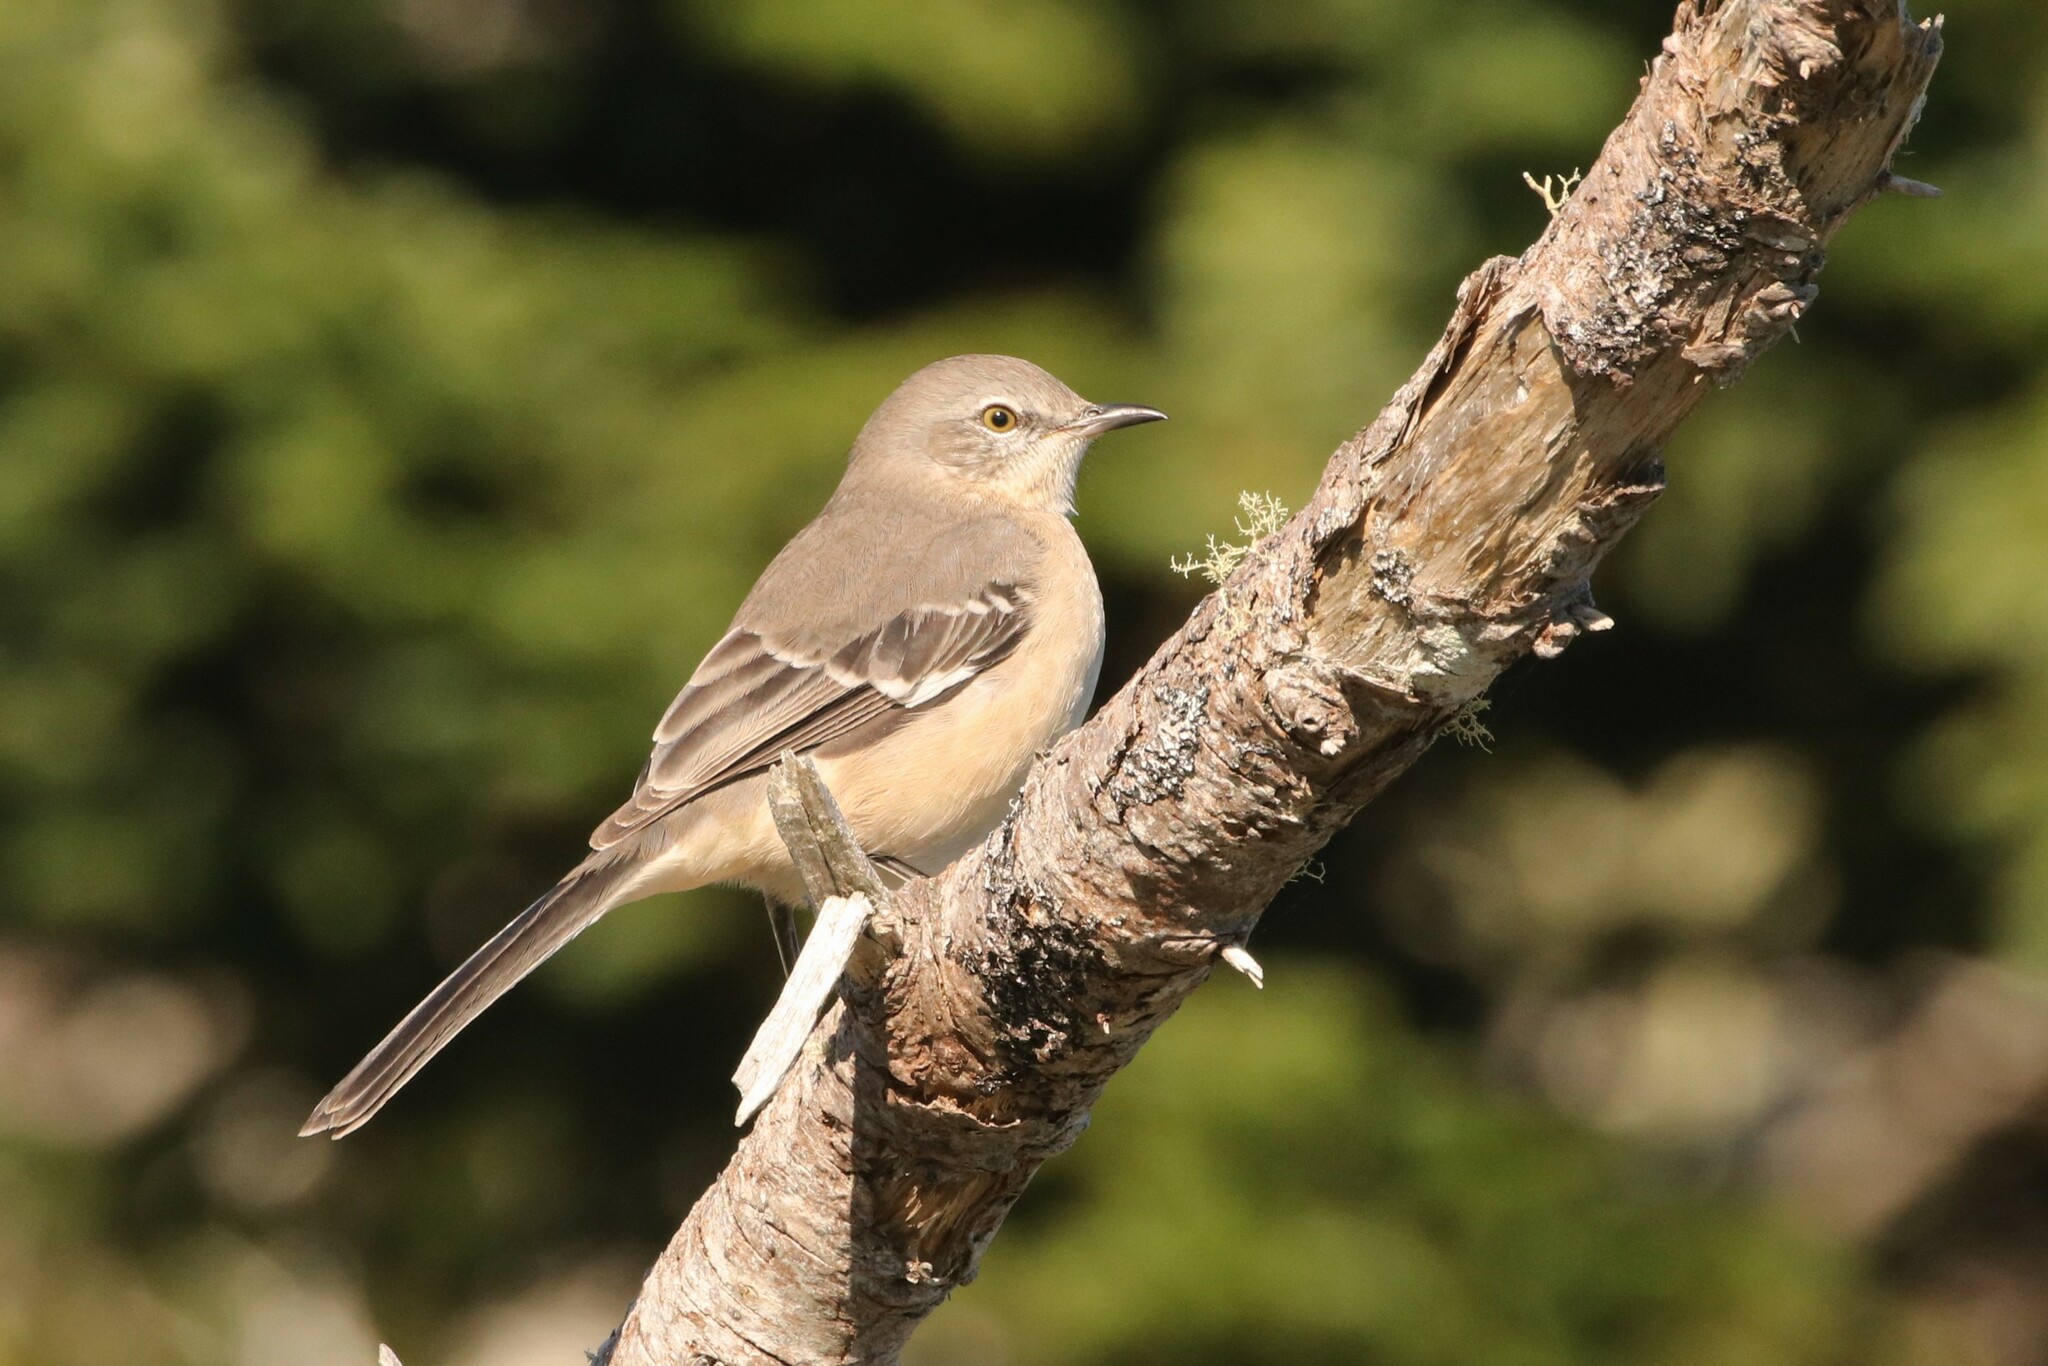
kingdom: Animalia
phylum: Chordata
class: Aves
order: Passeriformes
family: Mimidae
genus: Mimus
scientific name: Mimus polyglottos
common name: Northern mockingbird
